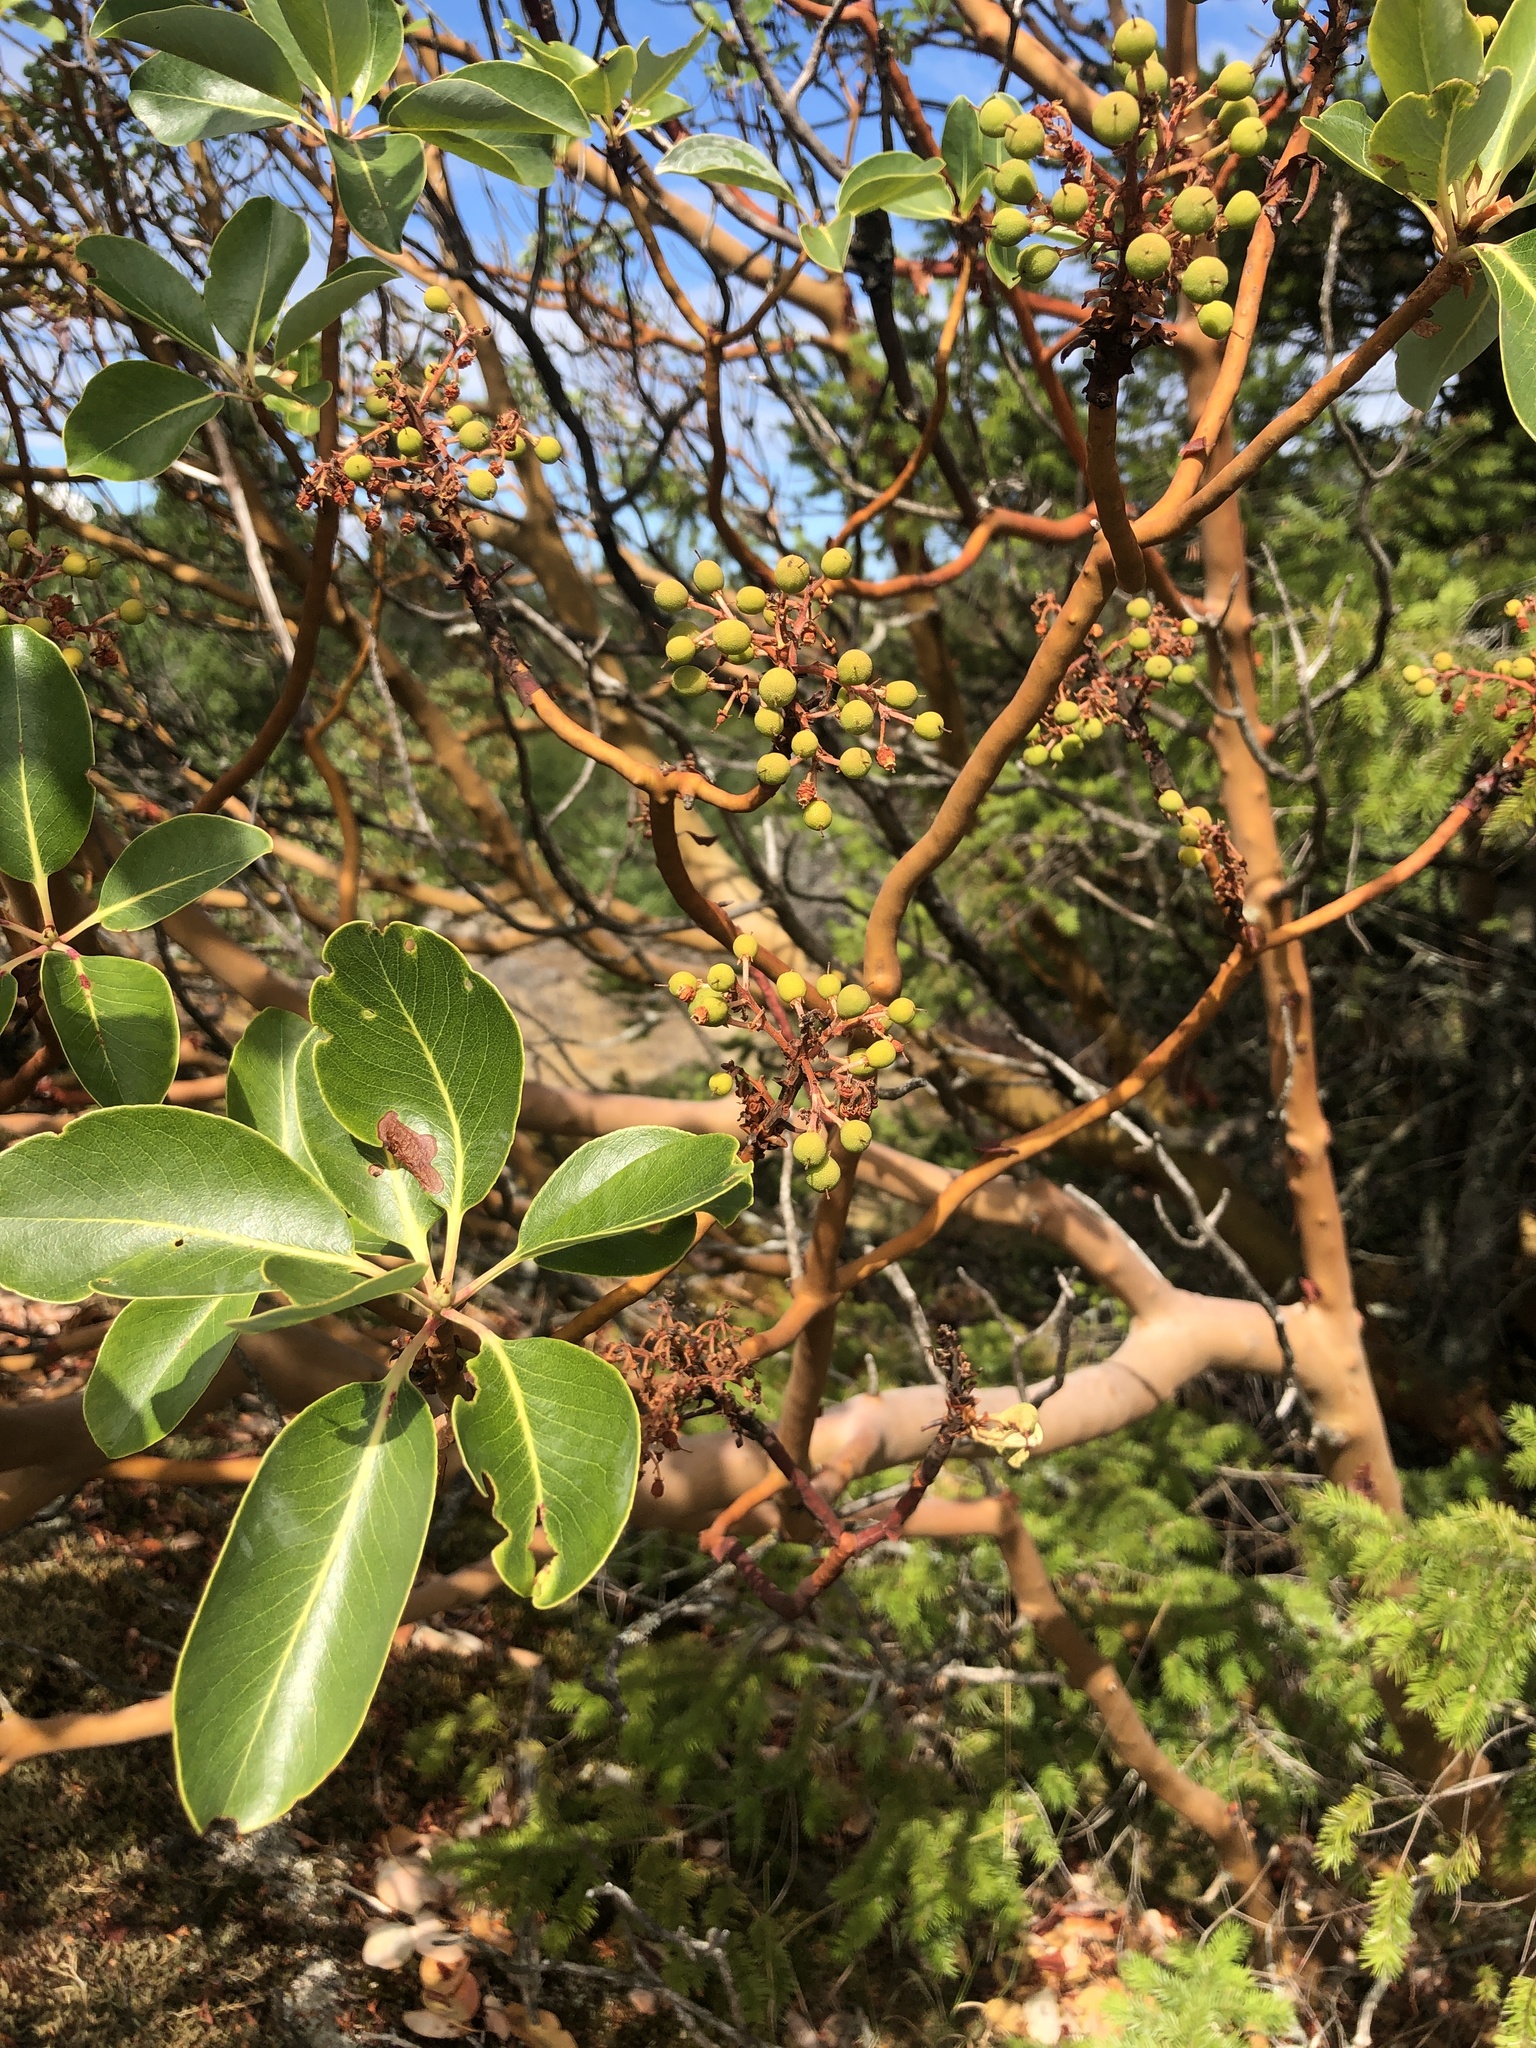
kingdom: Plantae
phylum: Tracheophyta
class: Magnoliopsida
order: Ericales
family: Ericaceae
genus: Arbutus
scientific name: Arbutus menziesii
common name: Pacific madrone
